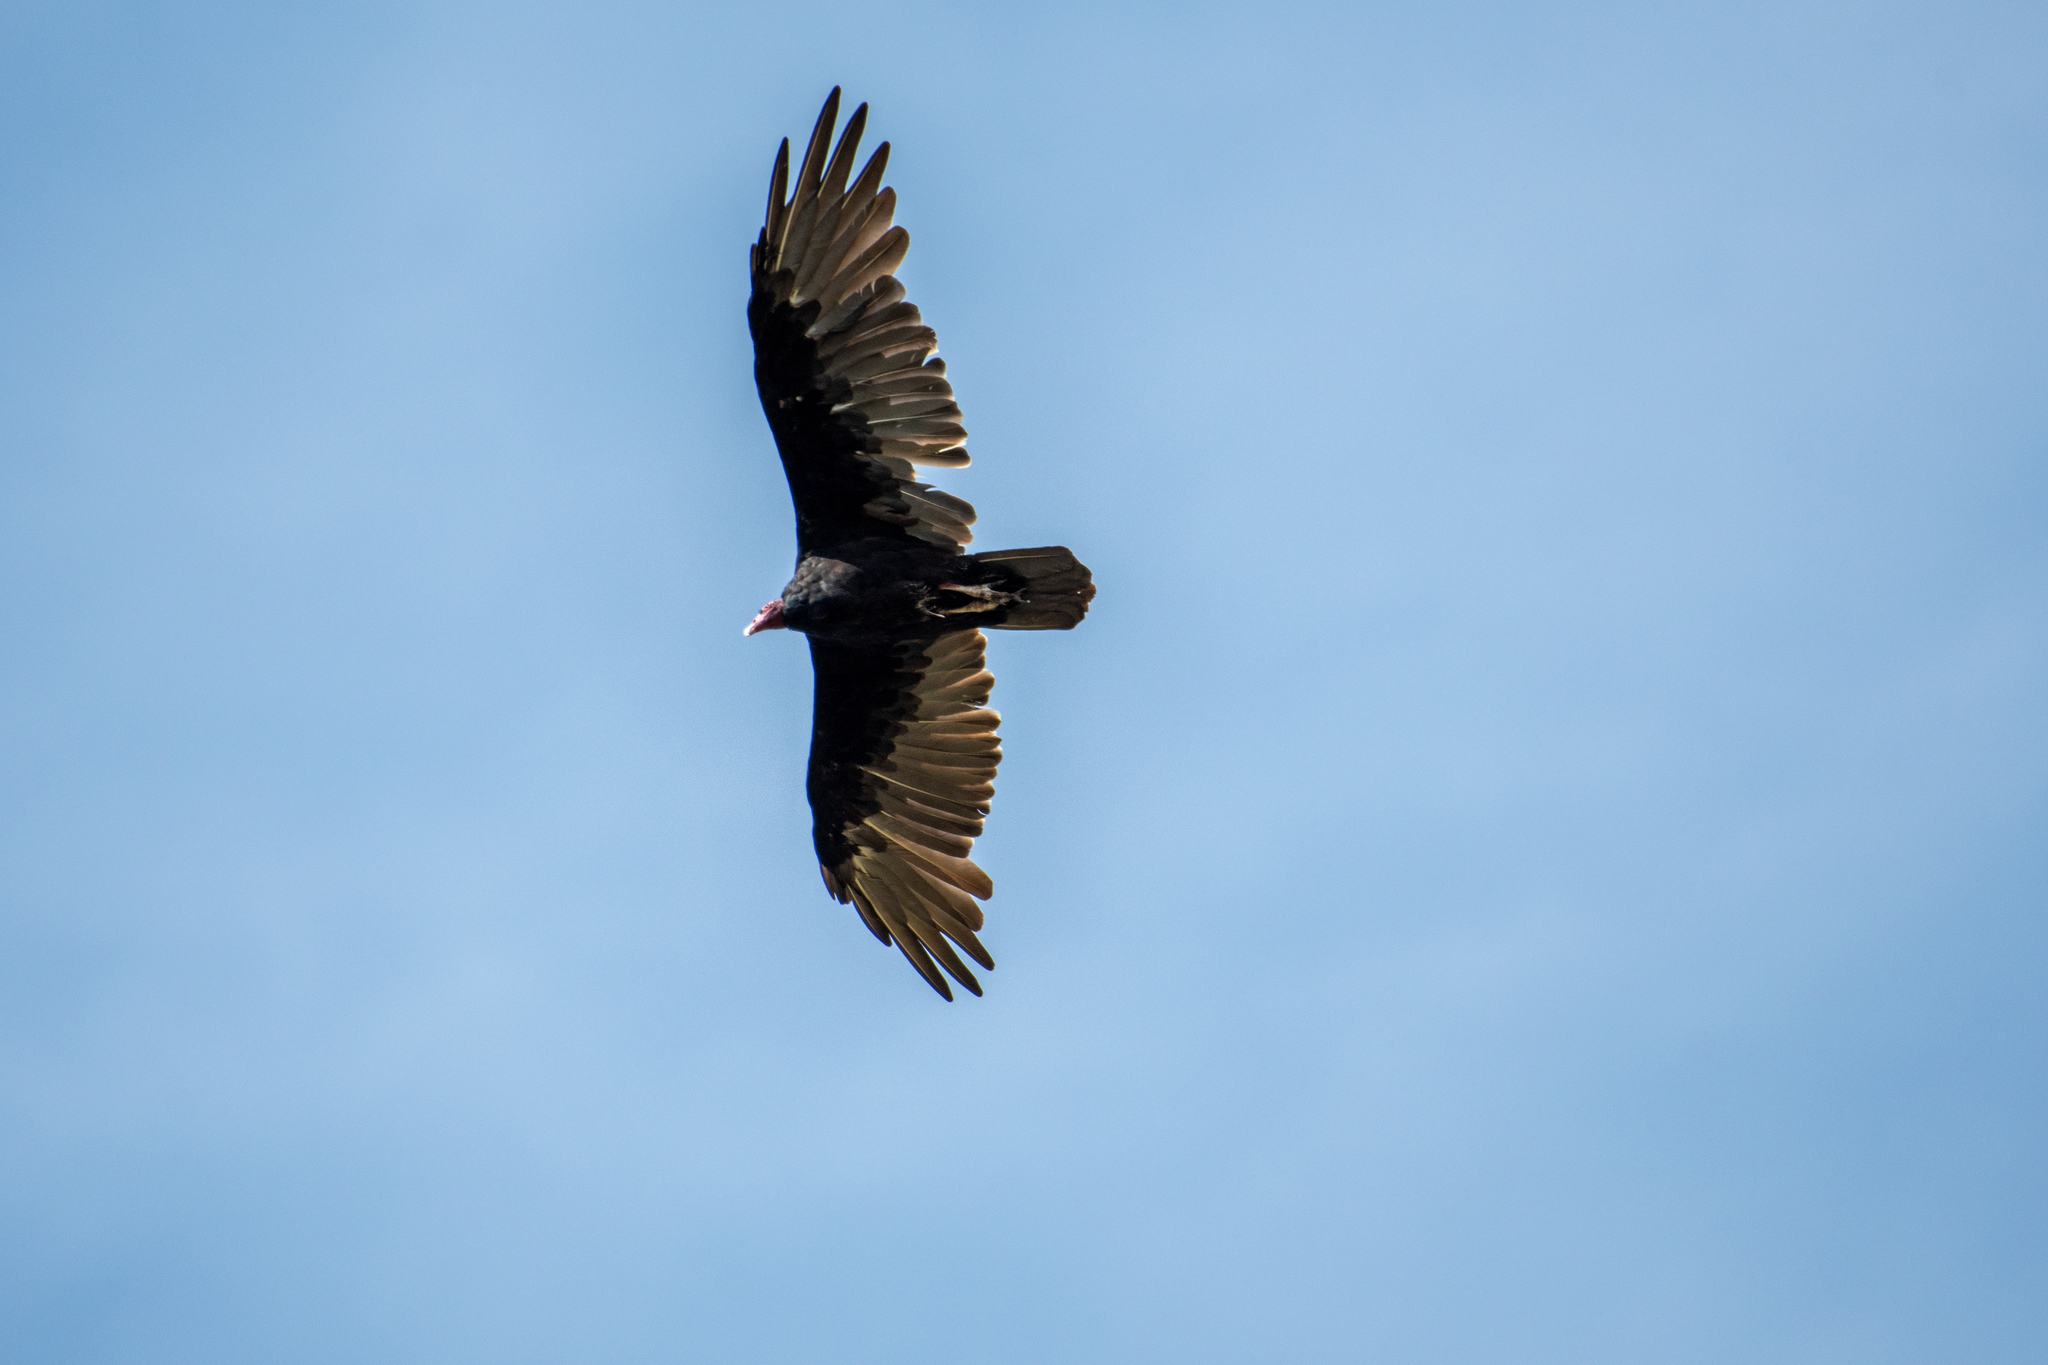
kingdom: Animalia
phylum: Chordata
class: Aves
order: Accipitriformes
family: Cathartidae
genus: Cathartes
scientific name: Cathartes aura
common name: Turkey vulture
